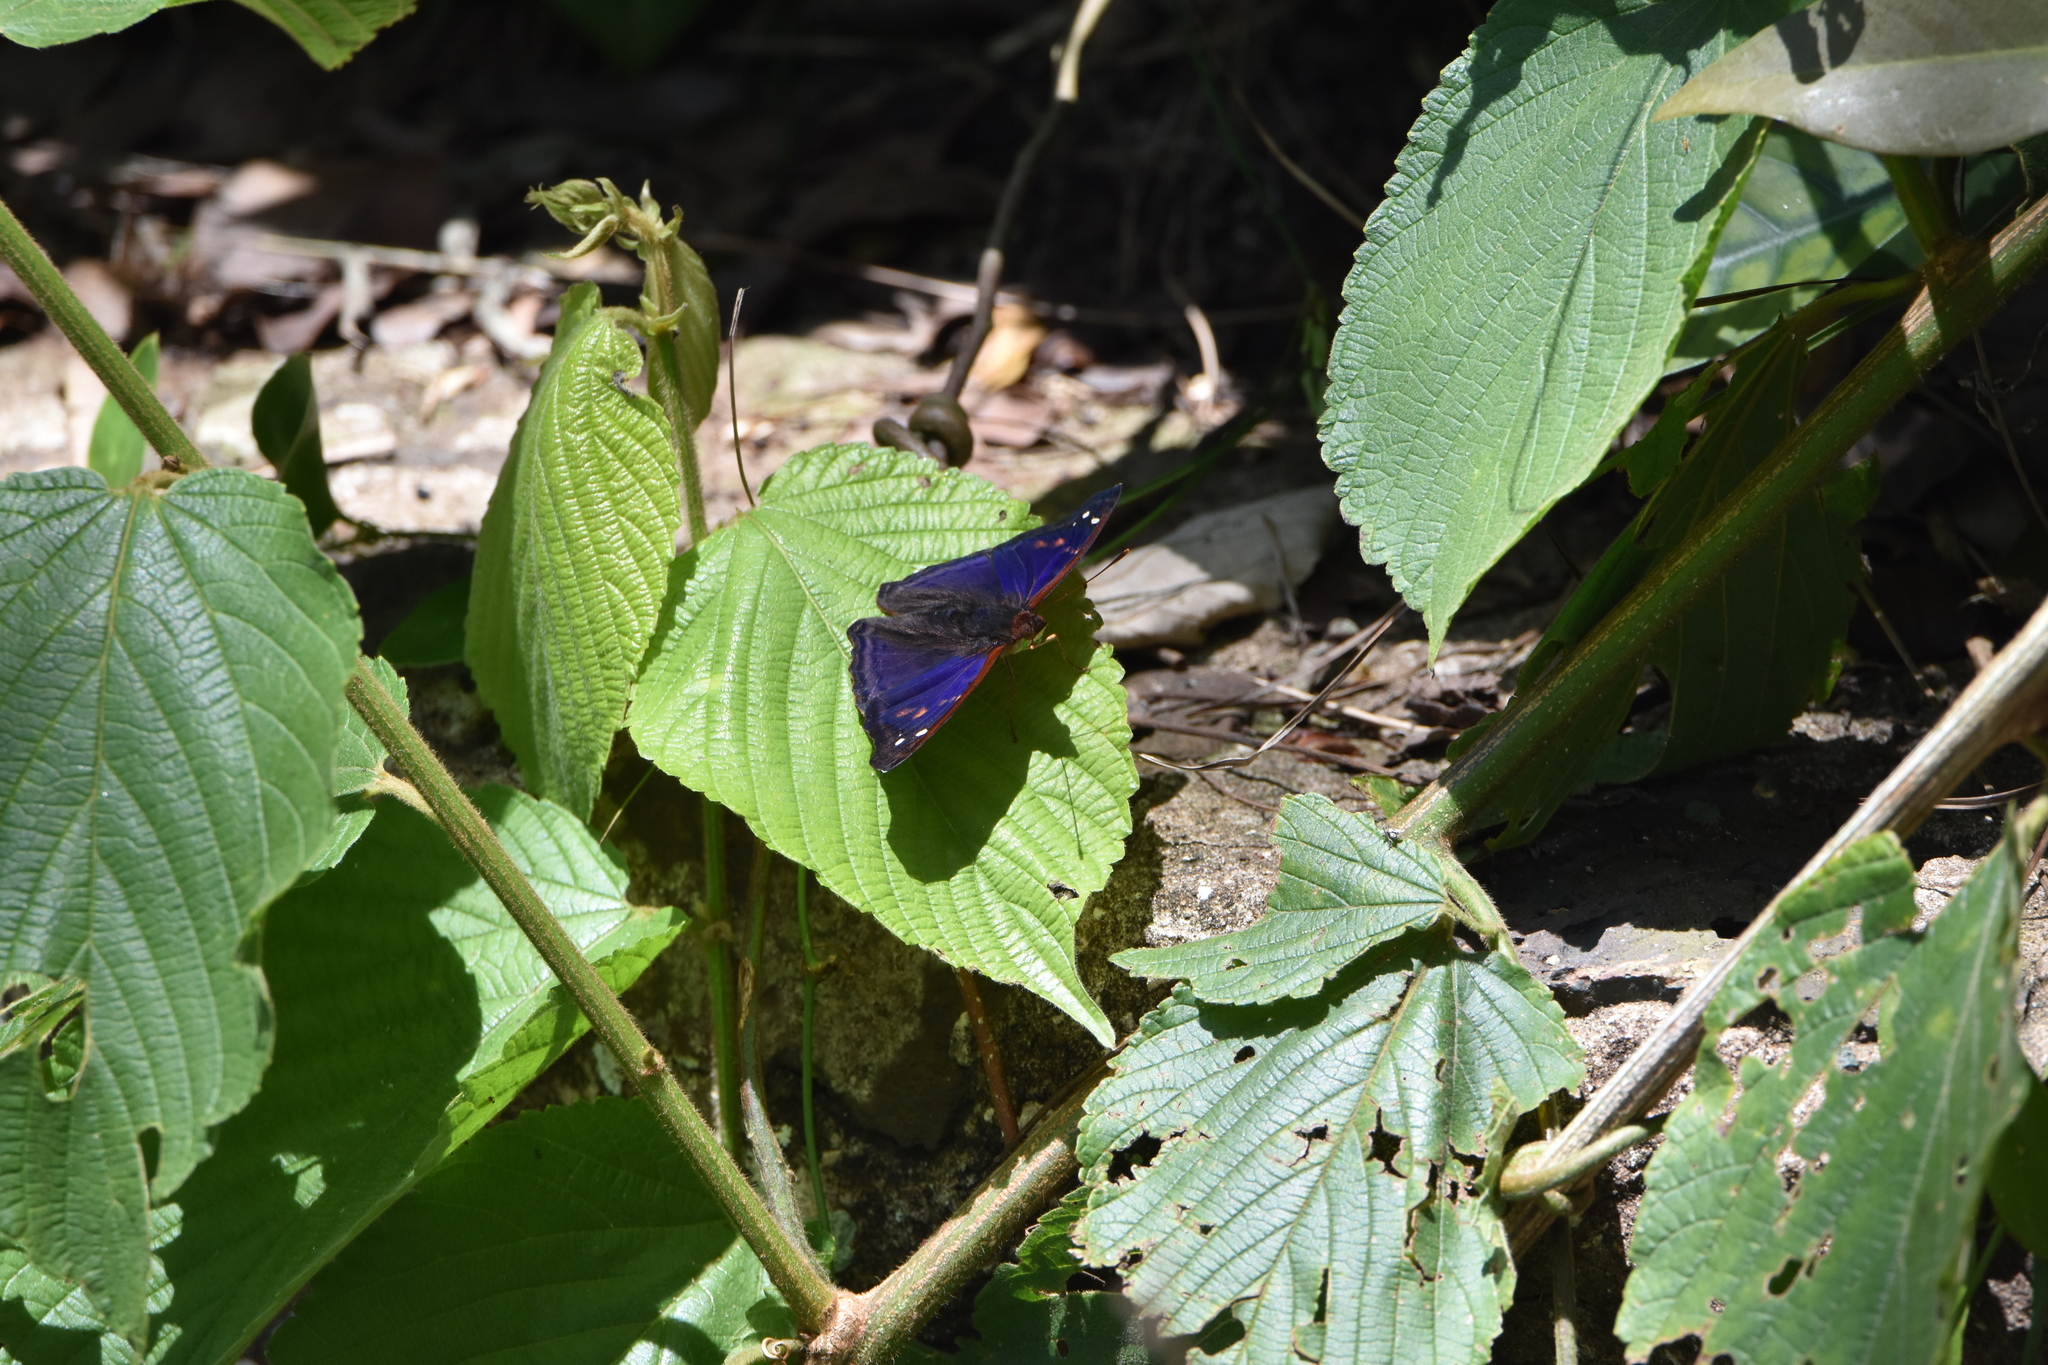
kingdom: Animalia
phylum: Arthropoda
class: Insecta
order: Lepidoptera
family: Nymphalidae
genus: Doxocopa
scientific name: Doxocopa agathina
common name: Agathina emperor
